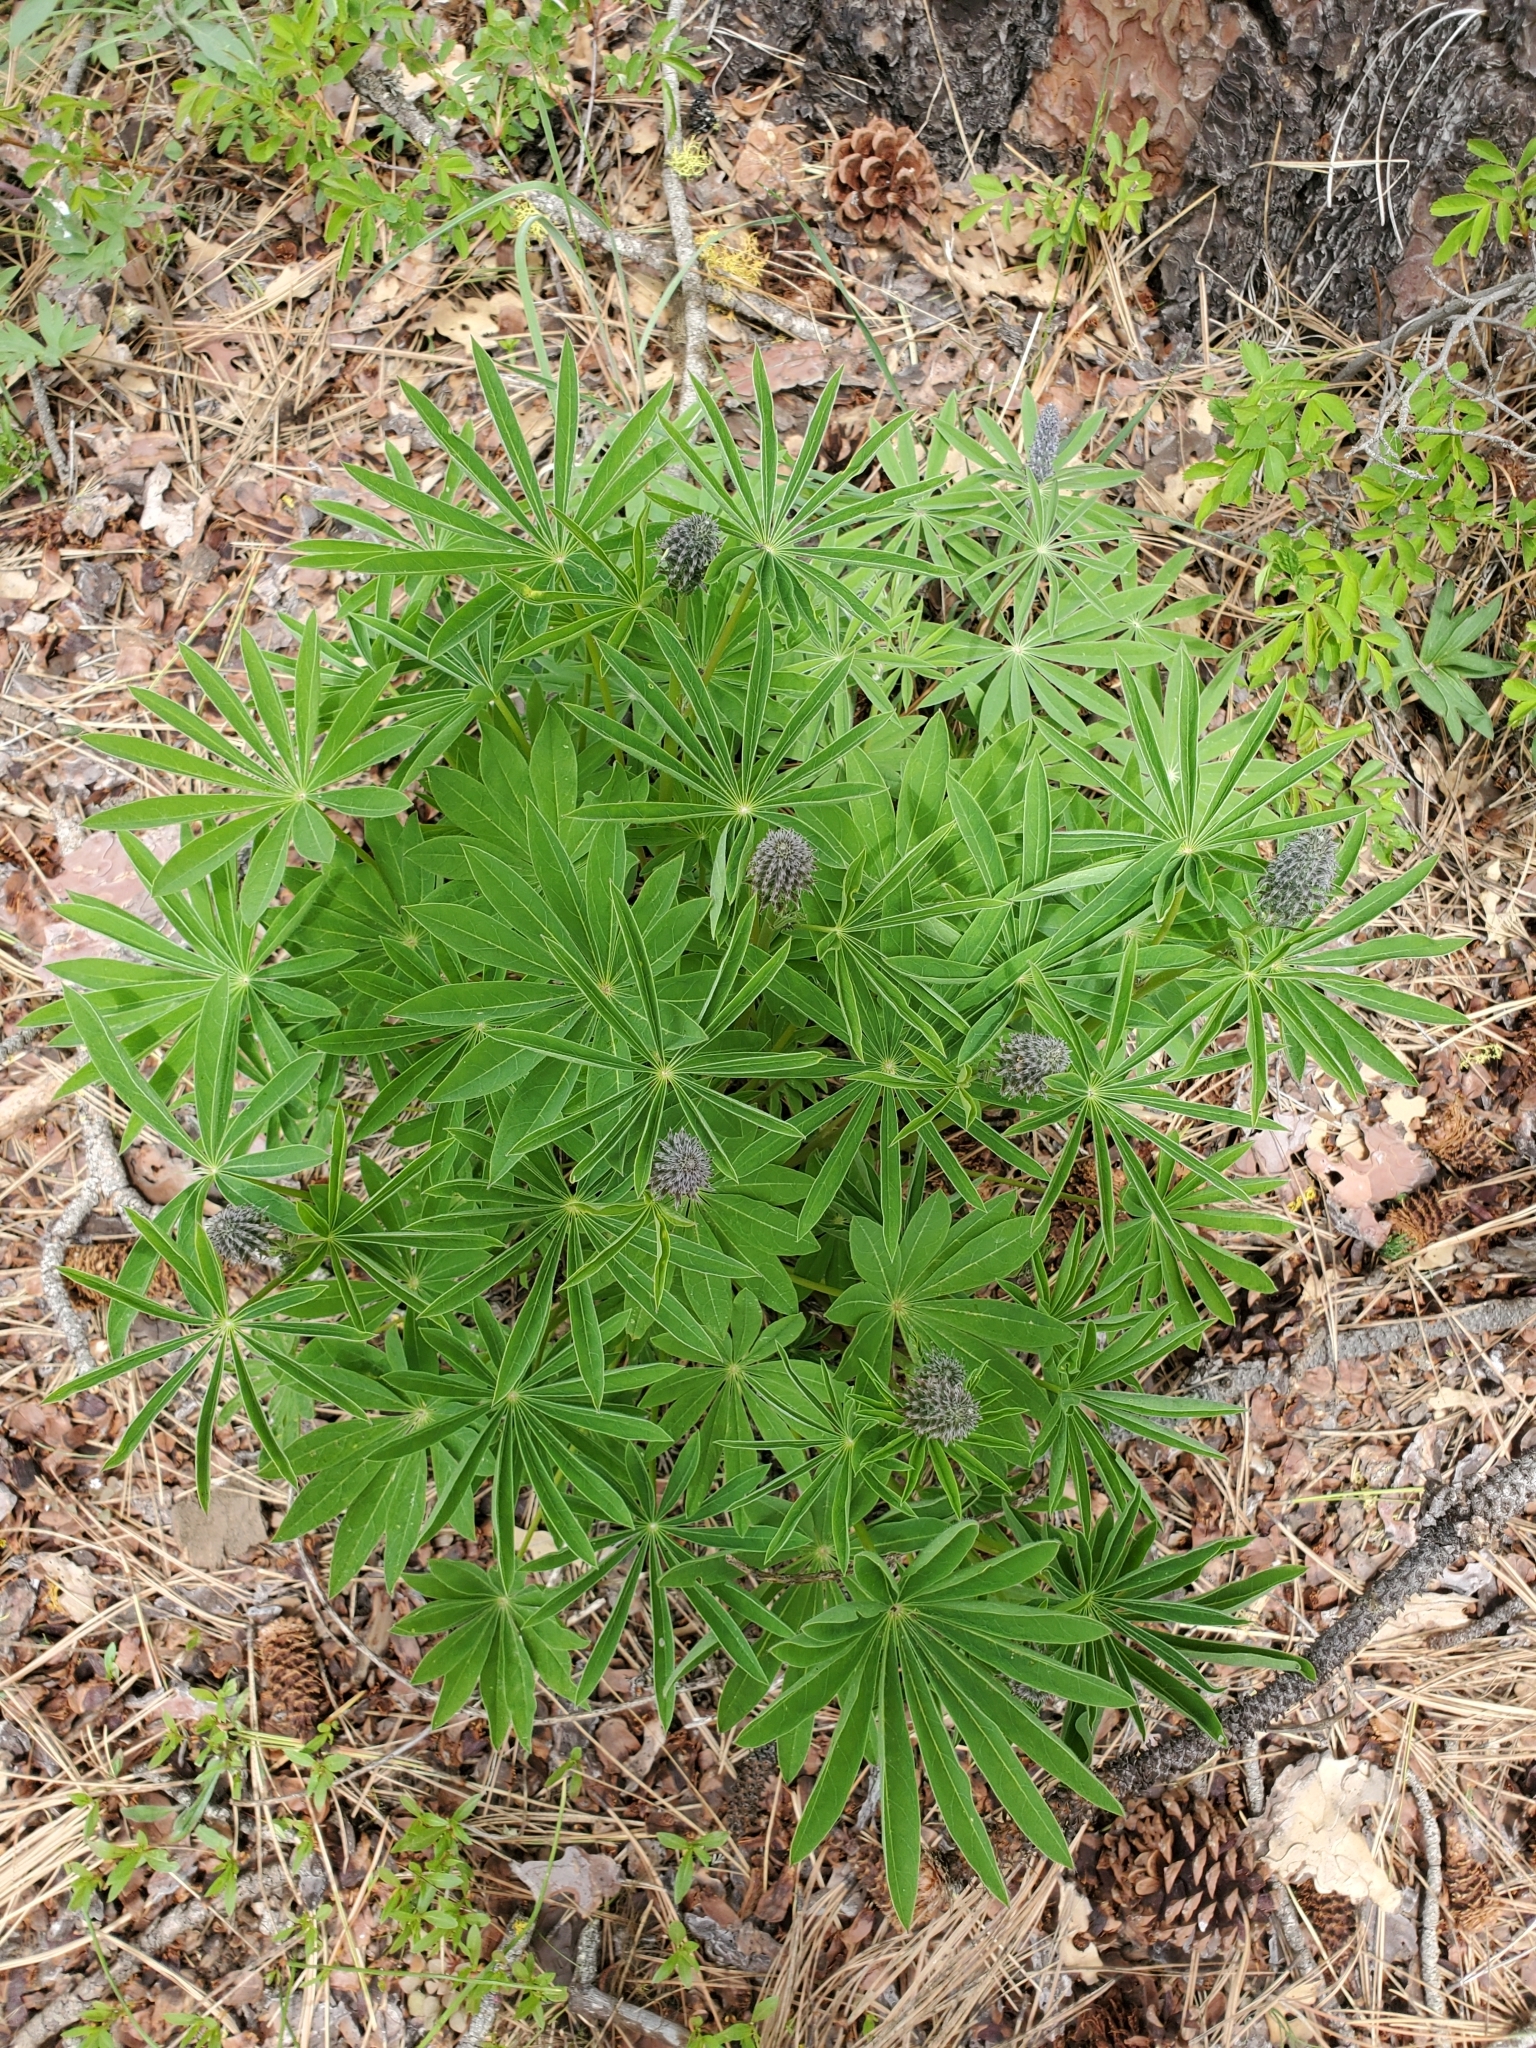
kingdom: Plantae
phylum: Tracheophyta
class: Magnoliopsida
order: Fabales
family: Fabaceae
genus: Lupinus
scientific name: Lupinus polyphyllus
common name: Garden lupin
